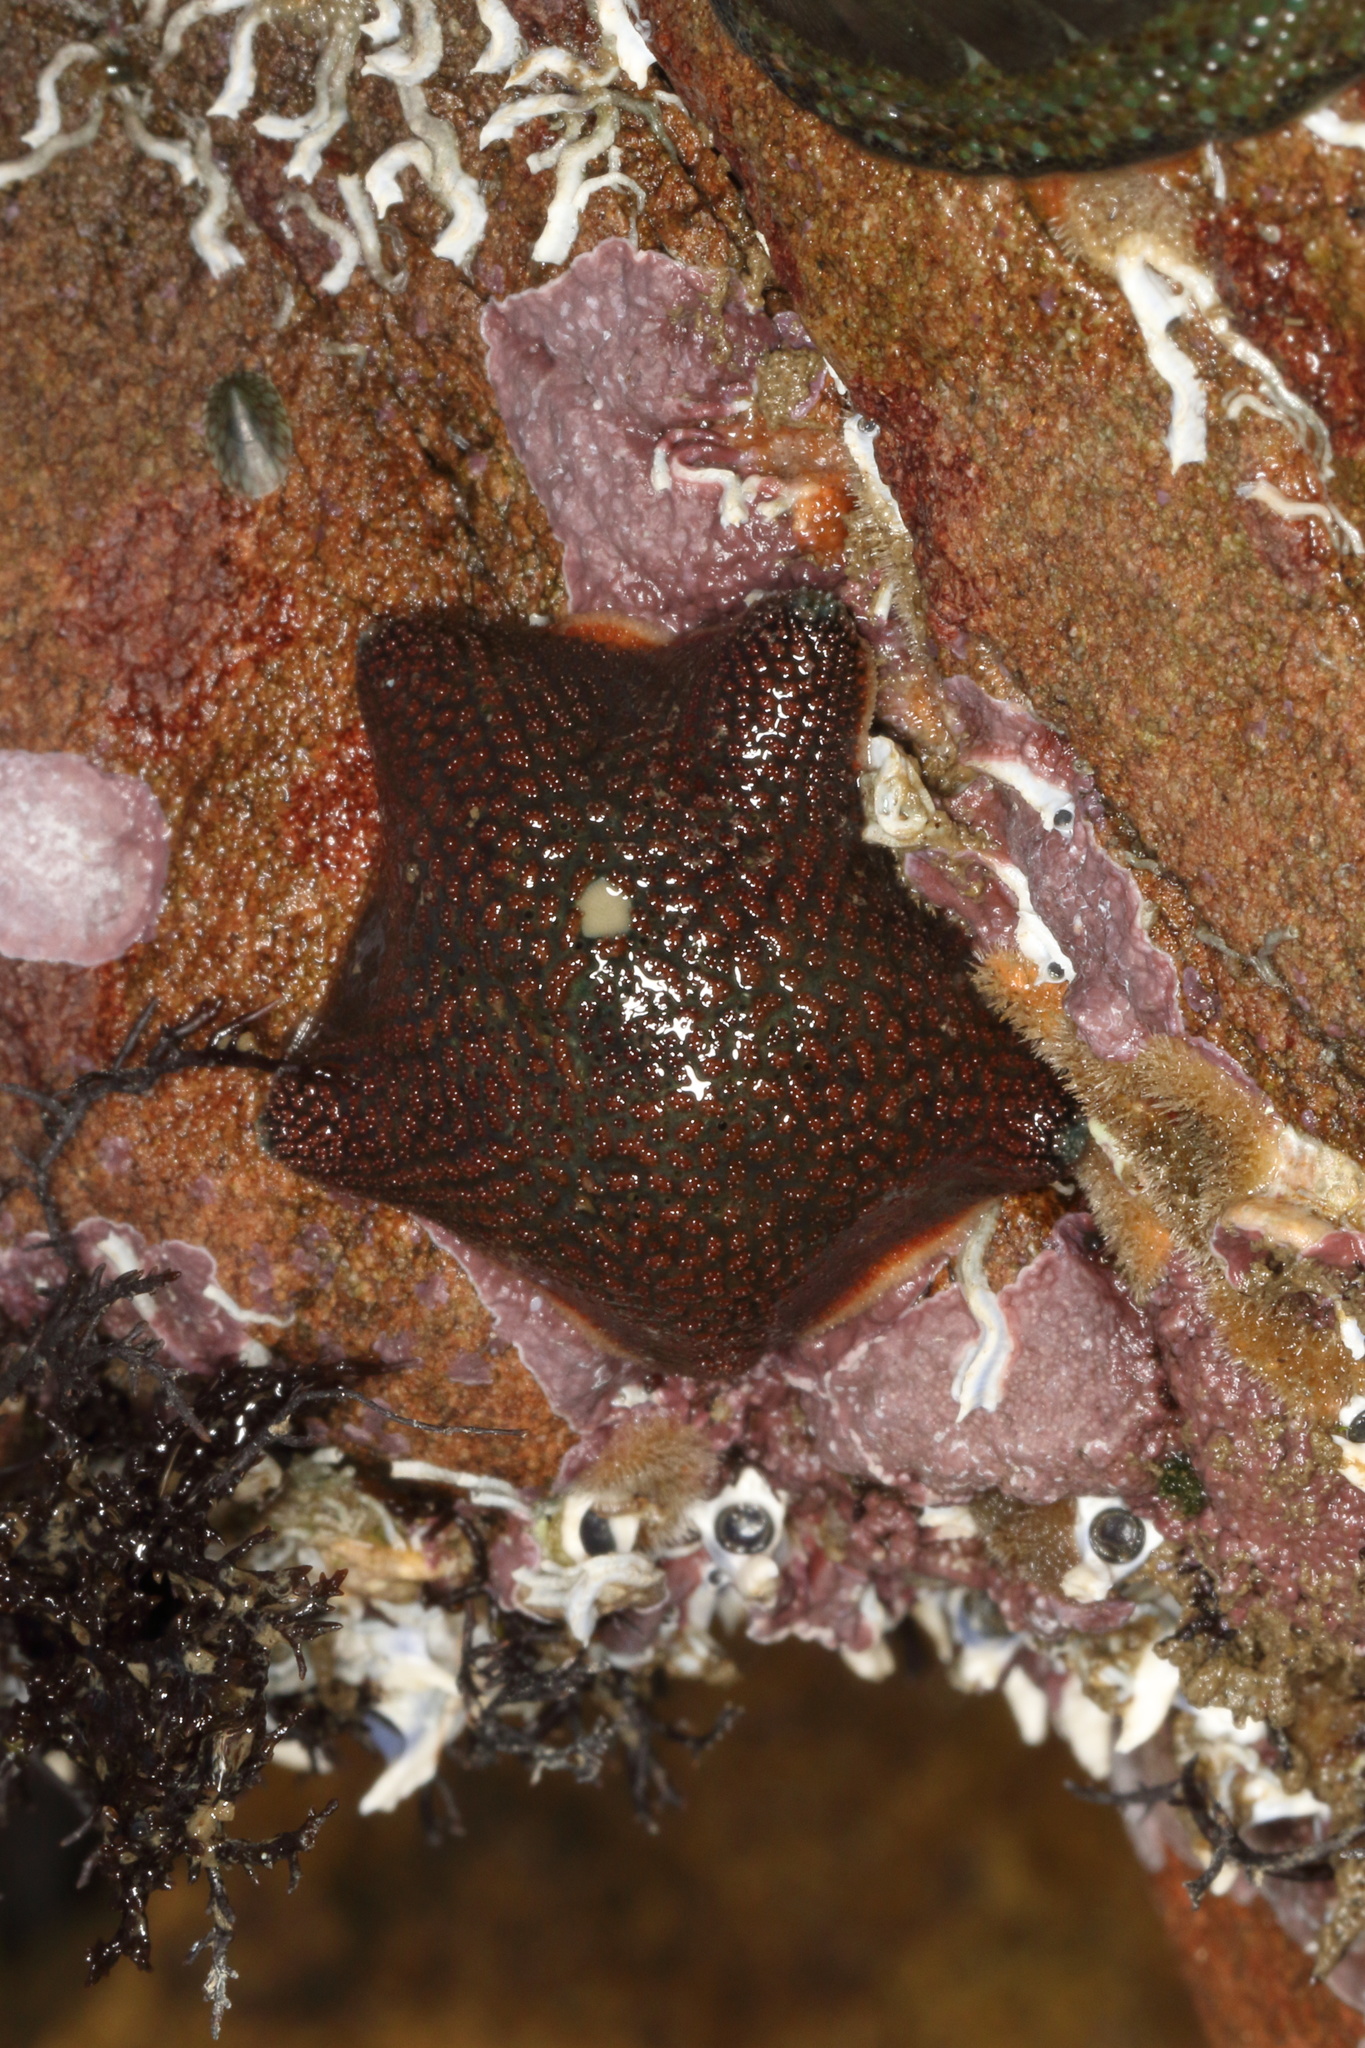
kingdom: Animalia
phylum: Echinodermata
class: Asteroidea
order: Valvatida
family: Asterinidae
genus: Patiriella
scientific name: Patiriella regularis
